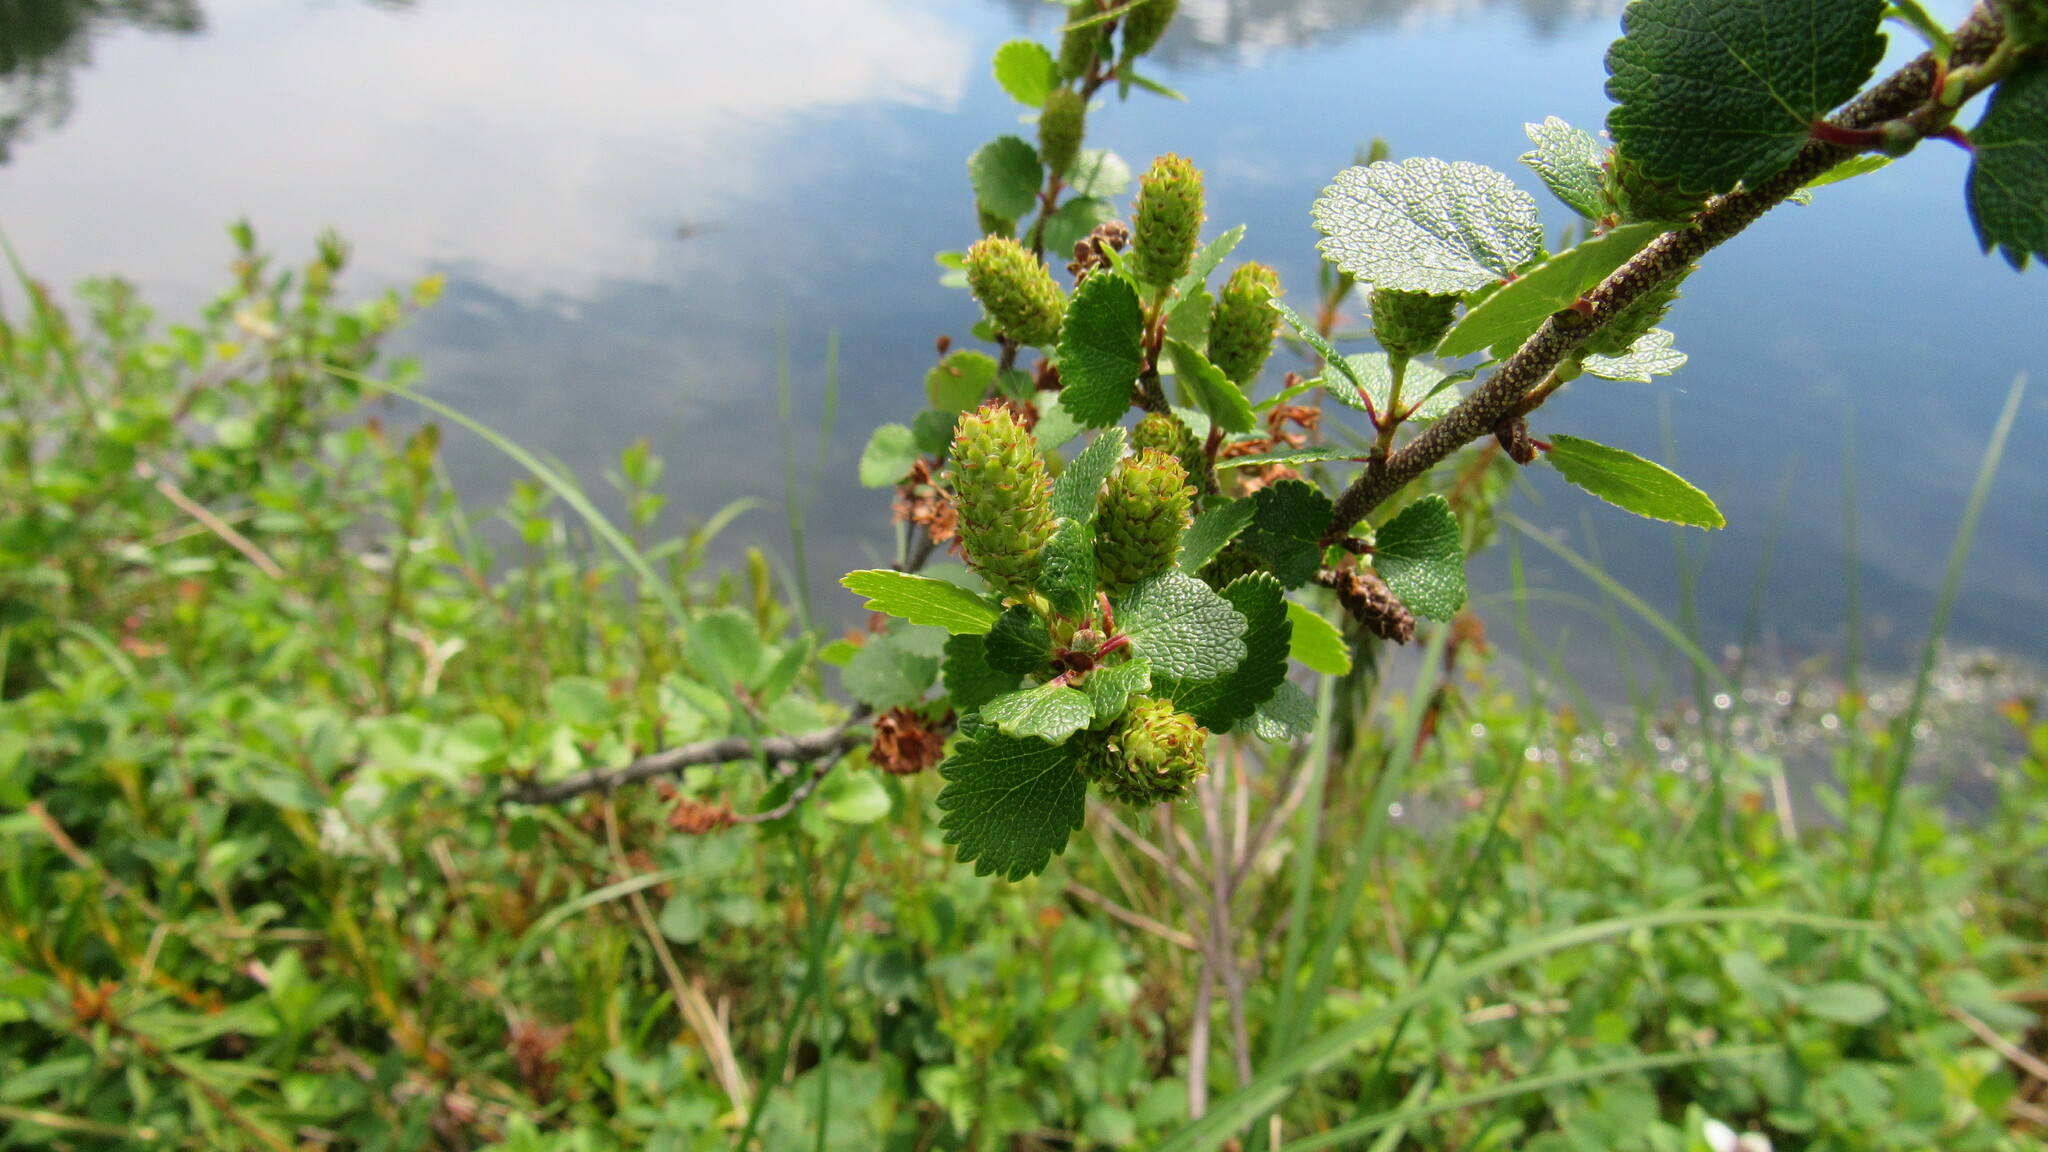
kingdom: Plantae
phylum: Tracheophyta
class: Magnoliopsida
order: Fagales
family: Betulaceae
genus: Betula
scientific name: Betula nana
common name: Arctic dwarf birch
